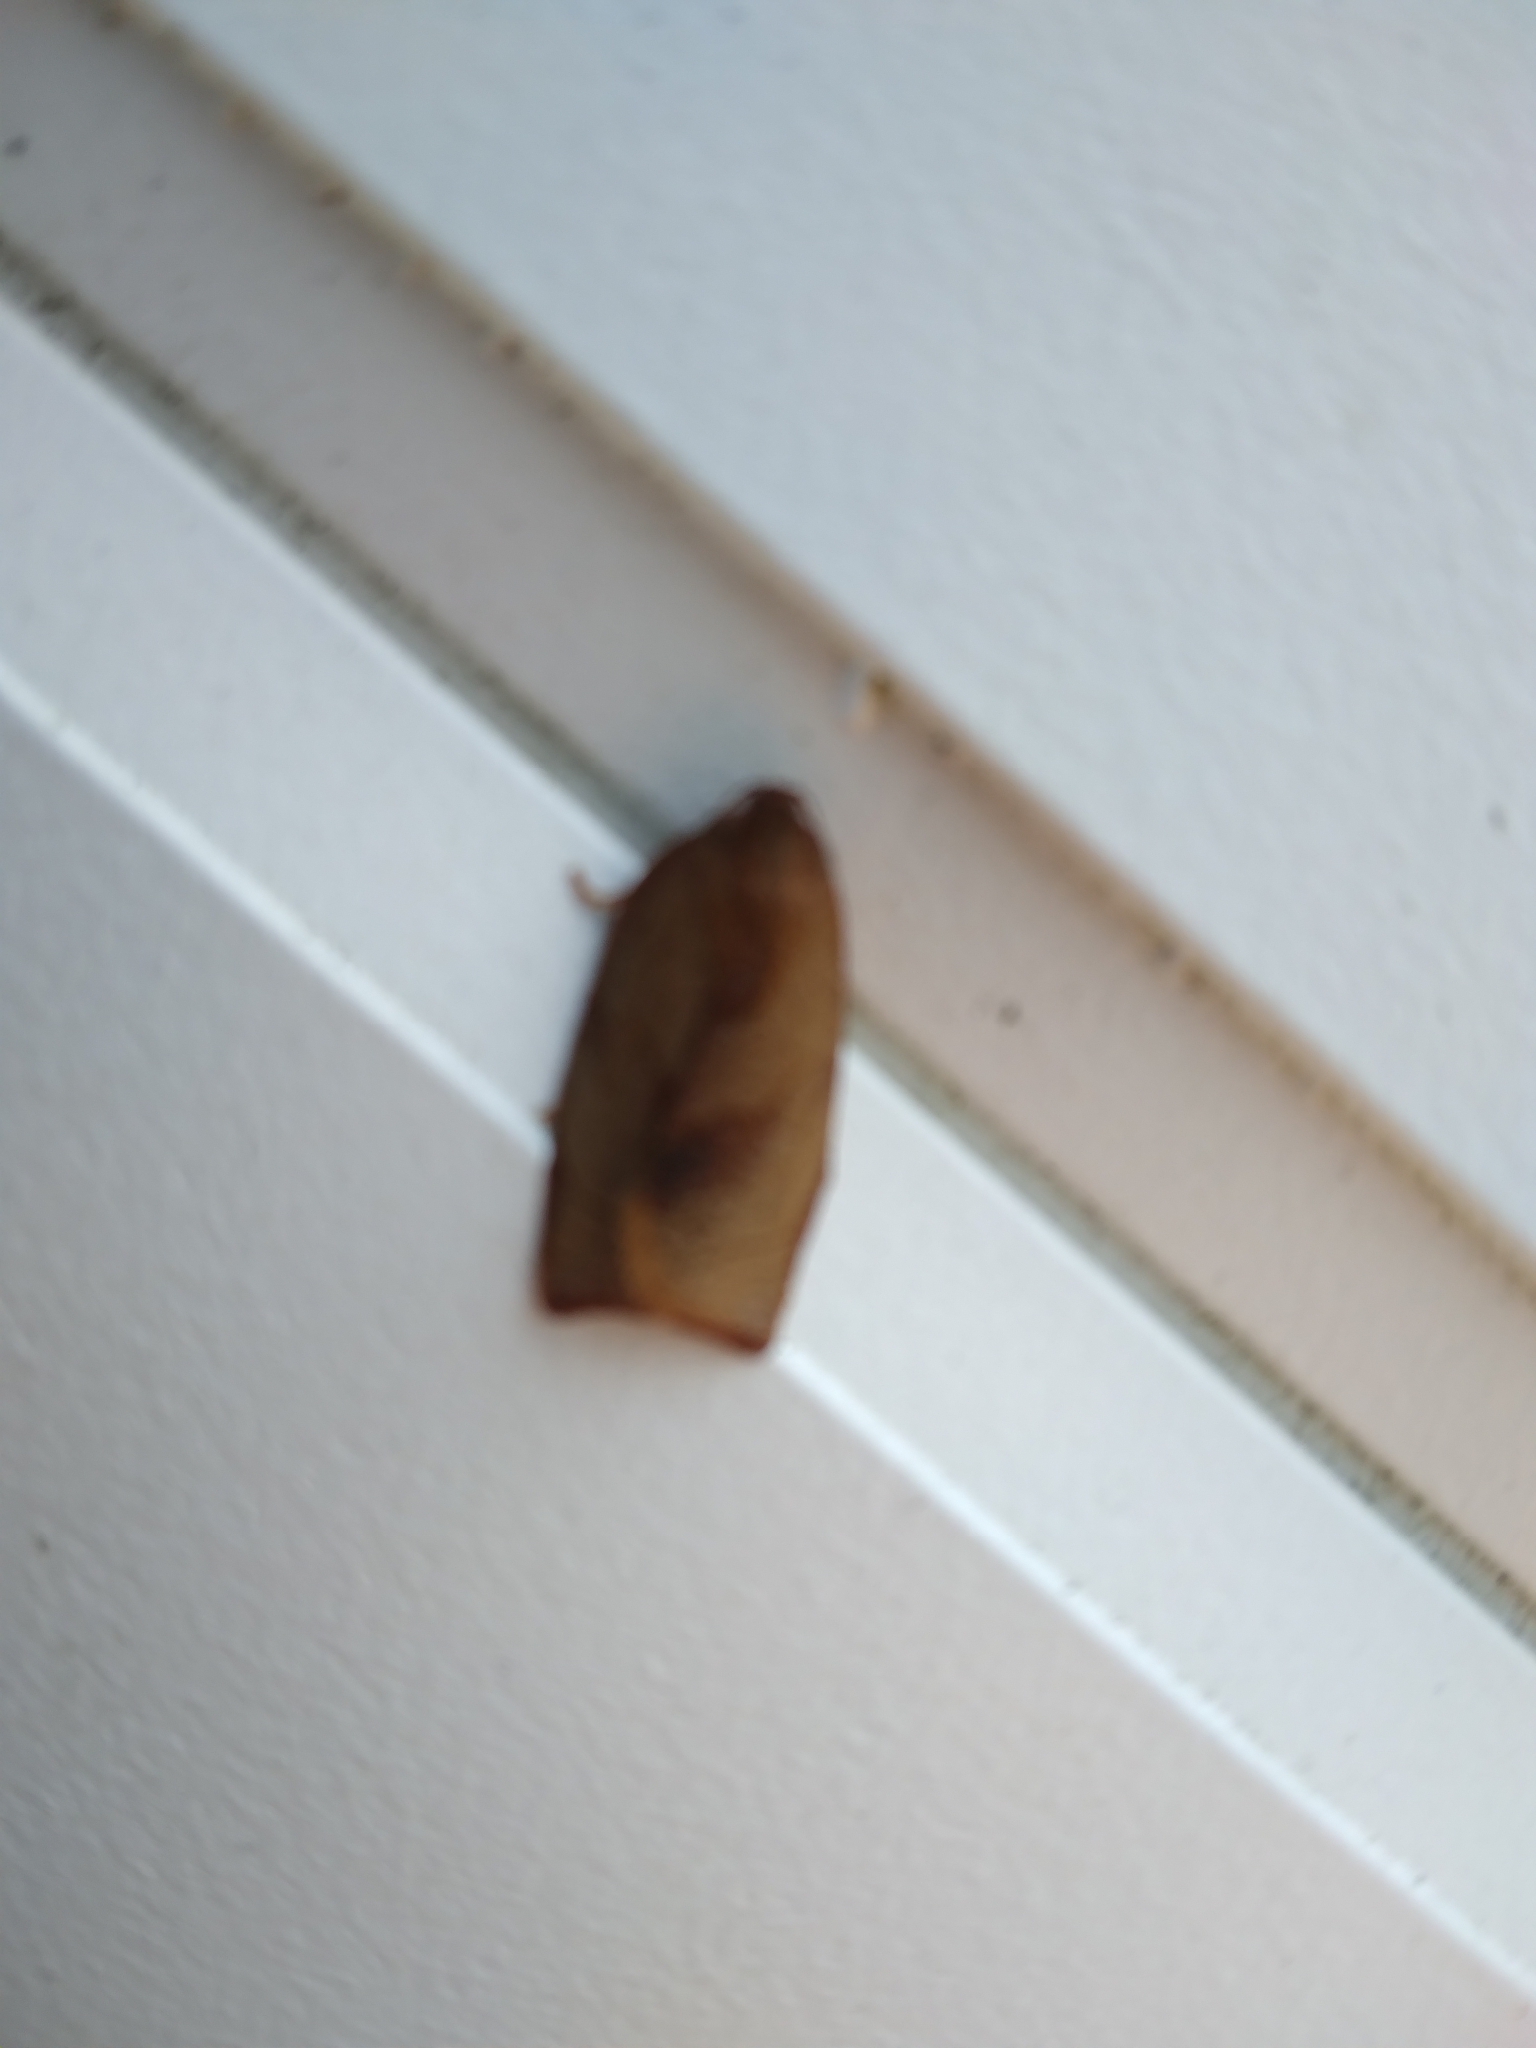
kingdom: Animalia
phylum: Arthropoda
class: Insecta
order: Lepidoptera
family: Tortricidae
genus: Cacoecimorpha
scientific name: Cacoecimorpha pronubana
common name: Carnation tortrix
